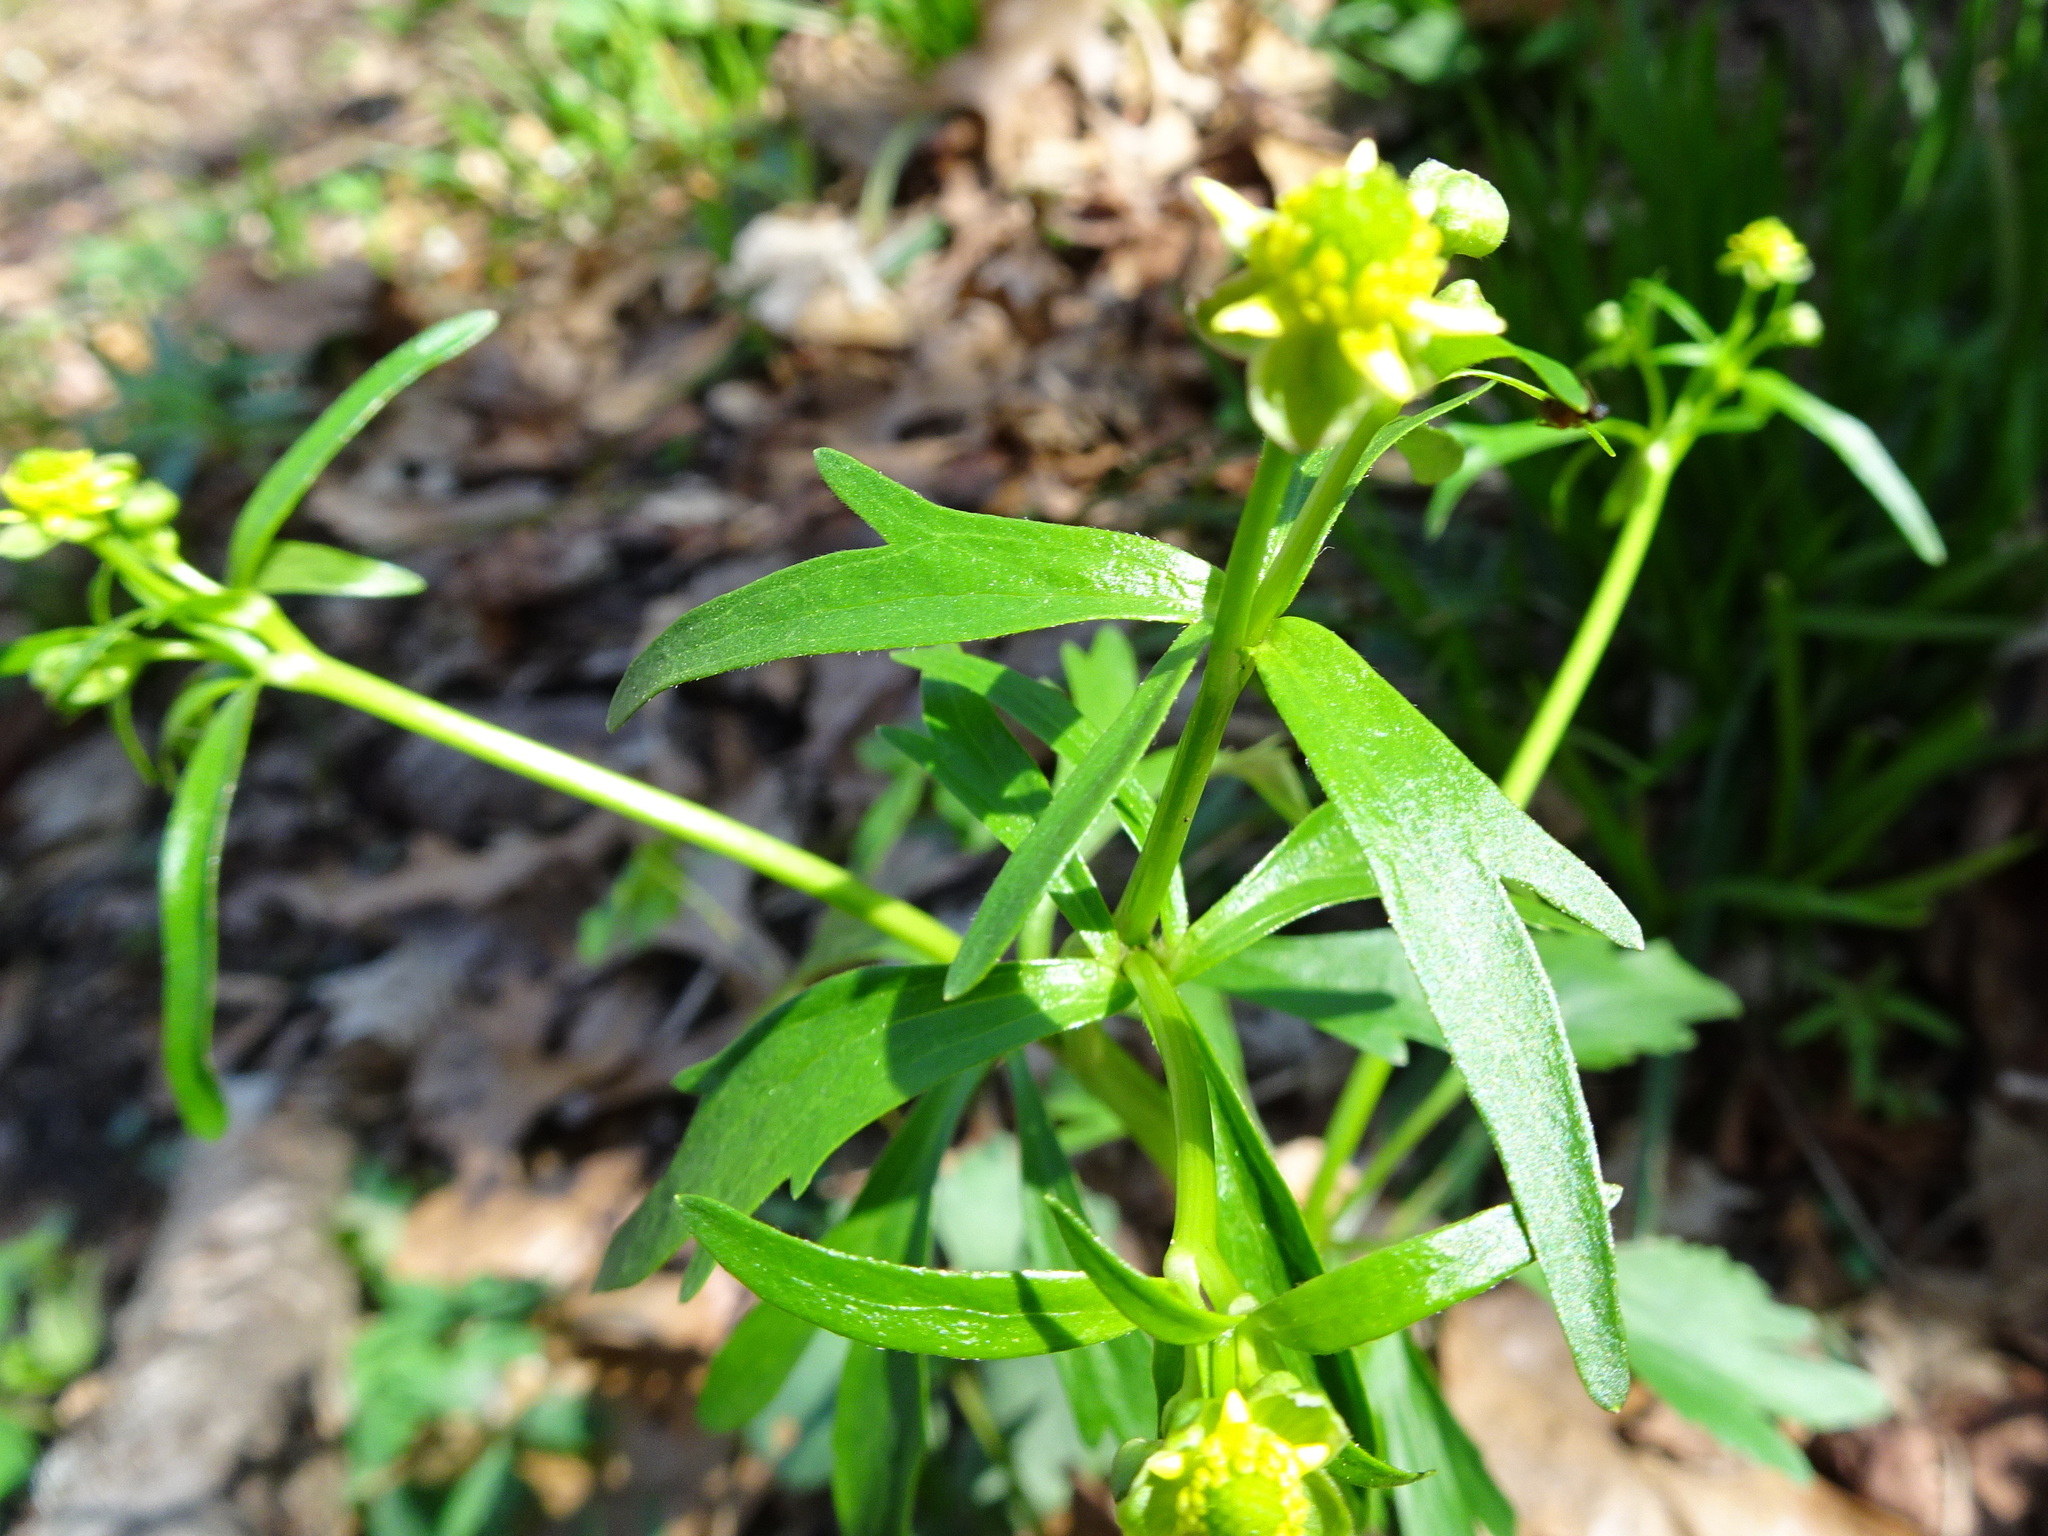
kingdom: Plantae
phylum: Tracheophyta
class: Magnoliopsida
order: Ranunculales
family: Ranunculaceae
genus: Ranunculus
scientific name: Ranunculus abortivus
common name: Early wood buttercup
